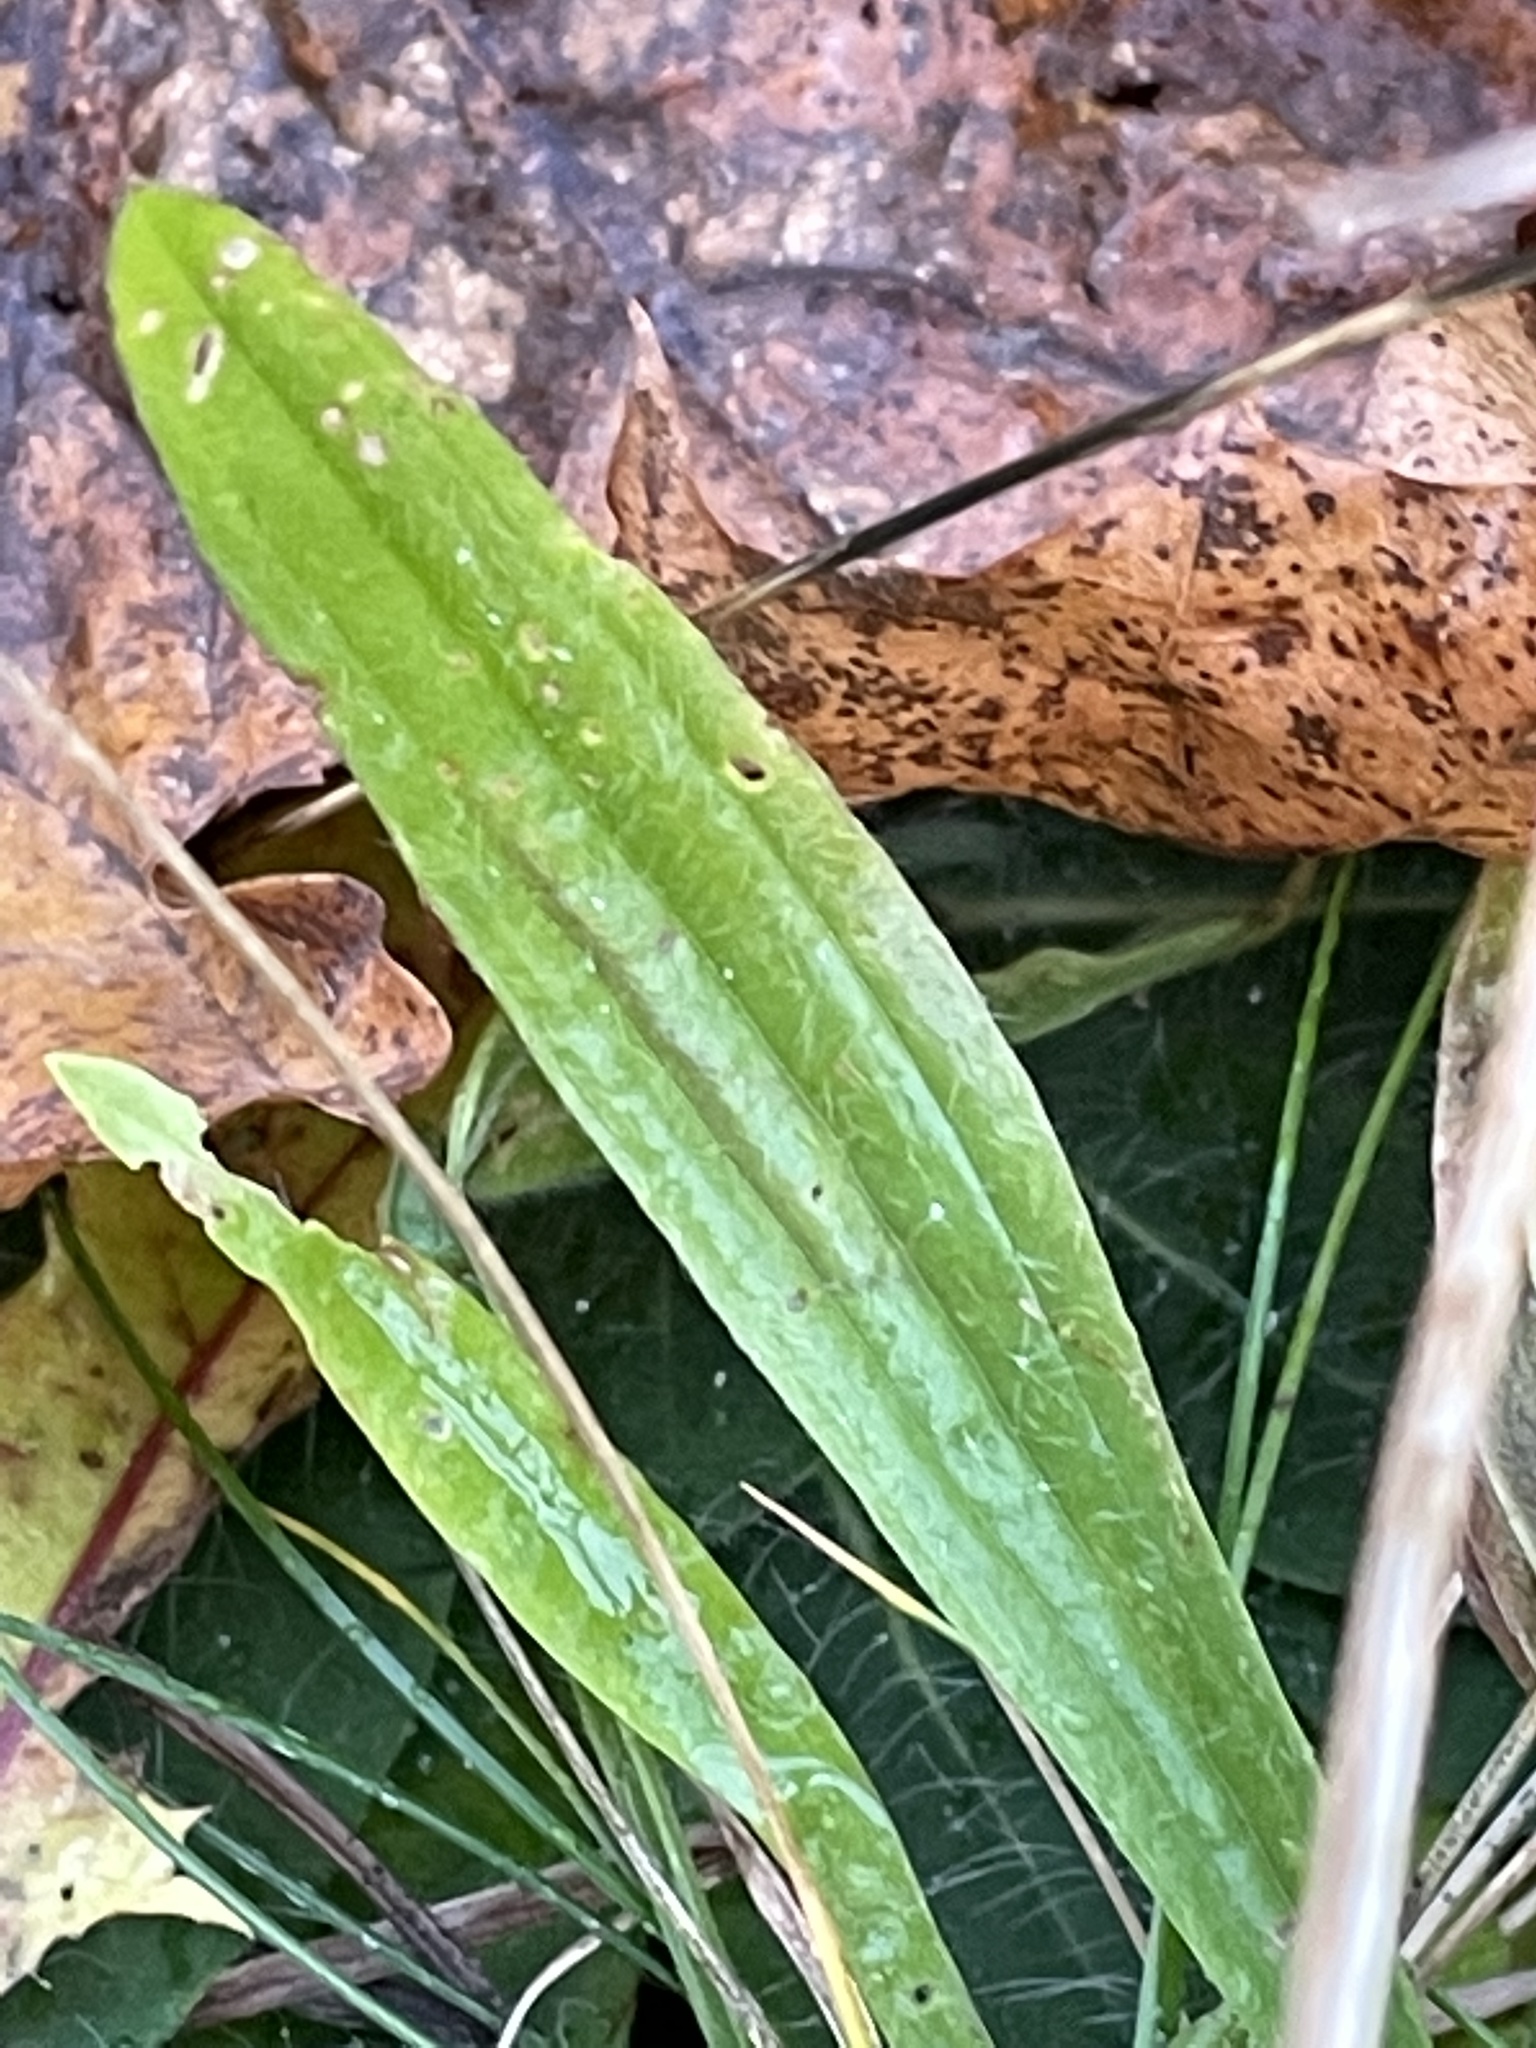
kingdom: Plantae
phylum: Tracheophyta
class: Magnoliopsida
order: Lamiales
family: Plantaginaceae
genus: Plantago
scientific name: Plantago lanceolata
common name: Ribwort plantain
